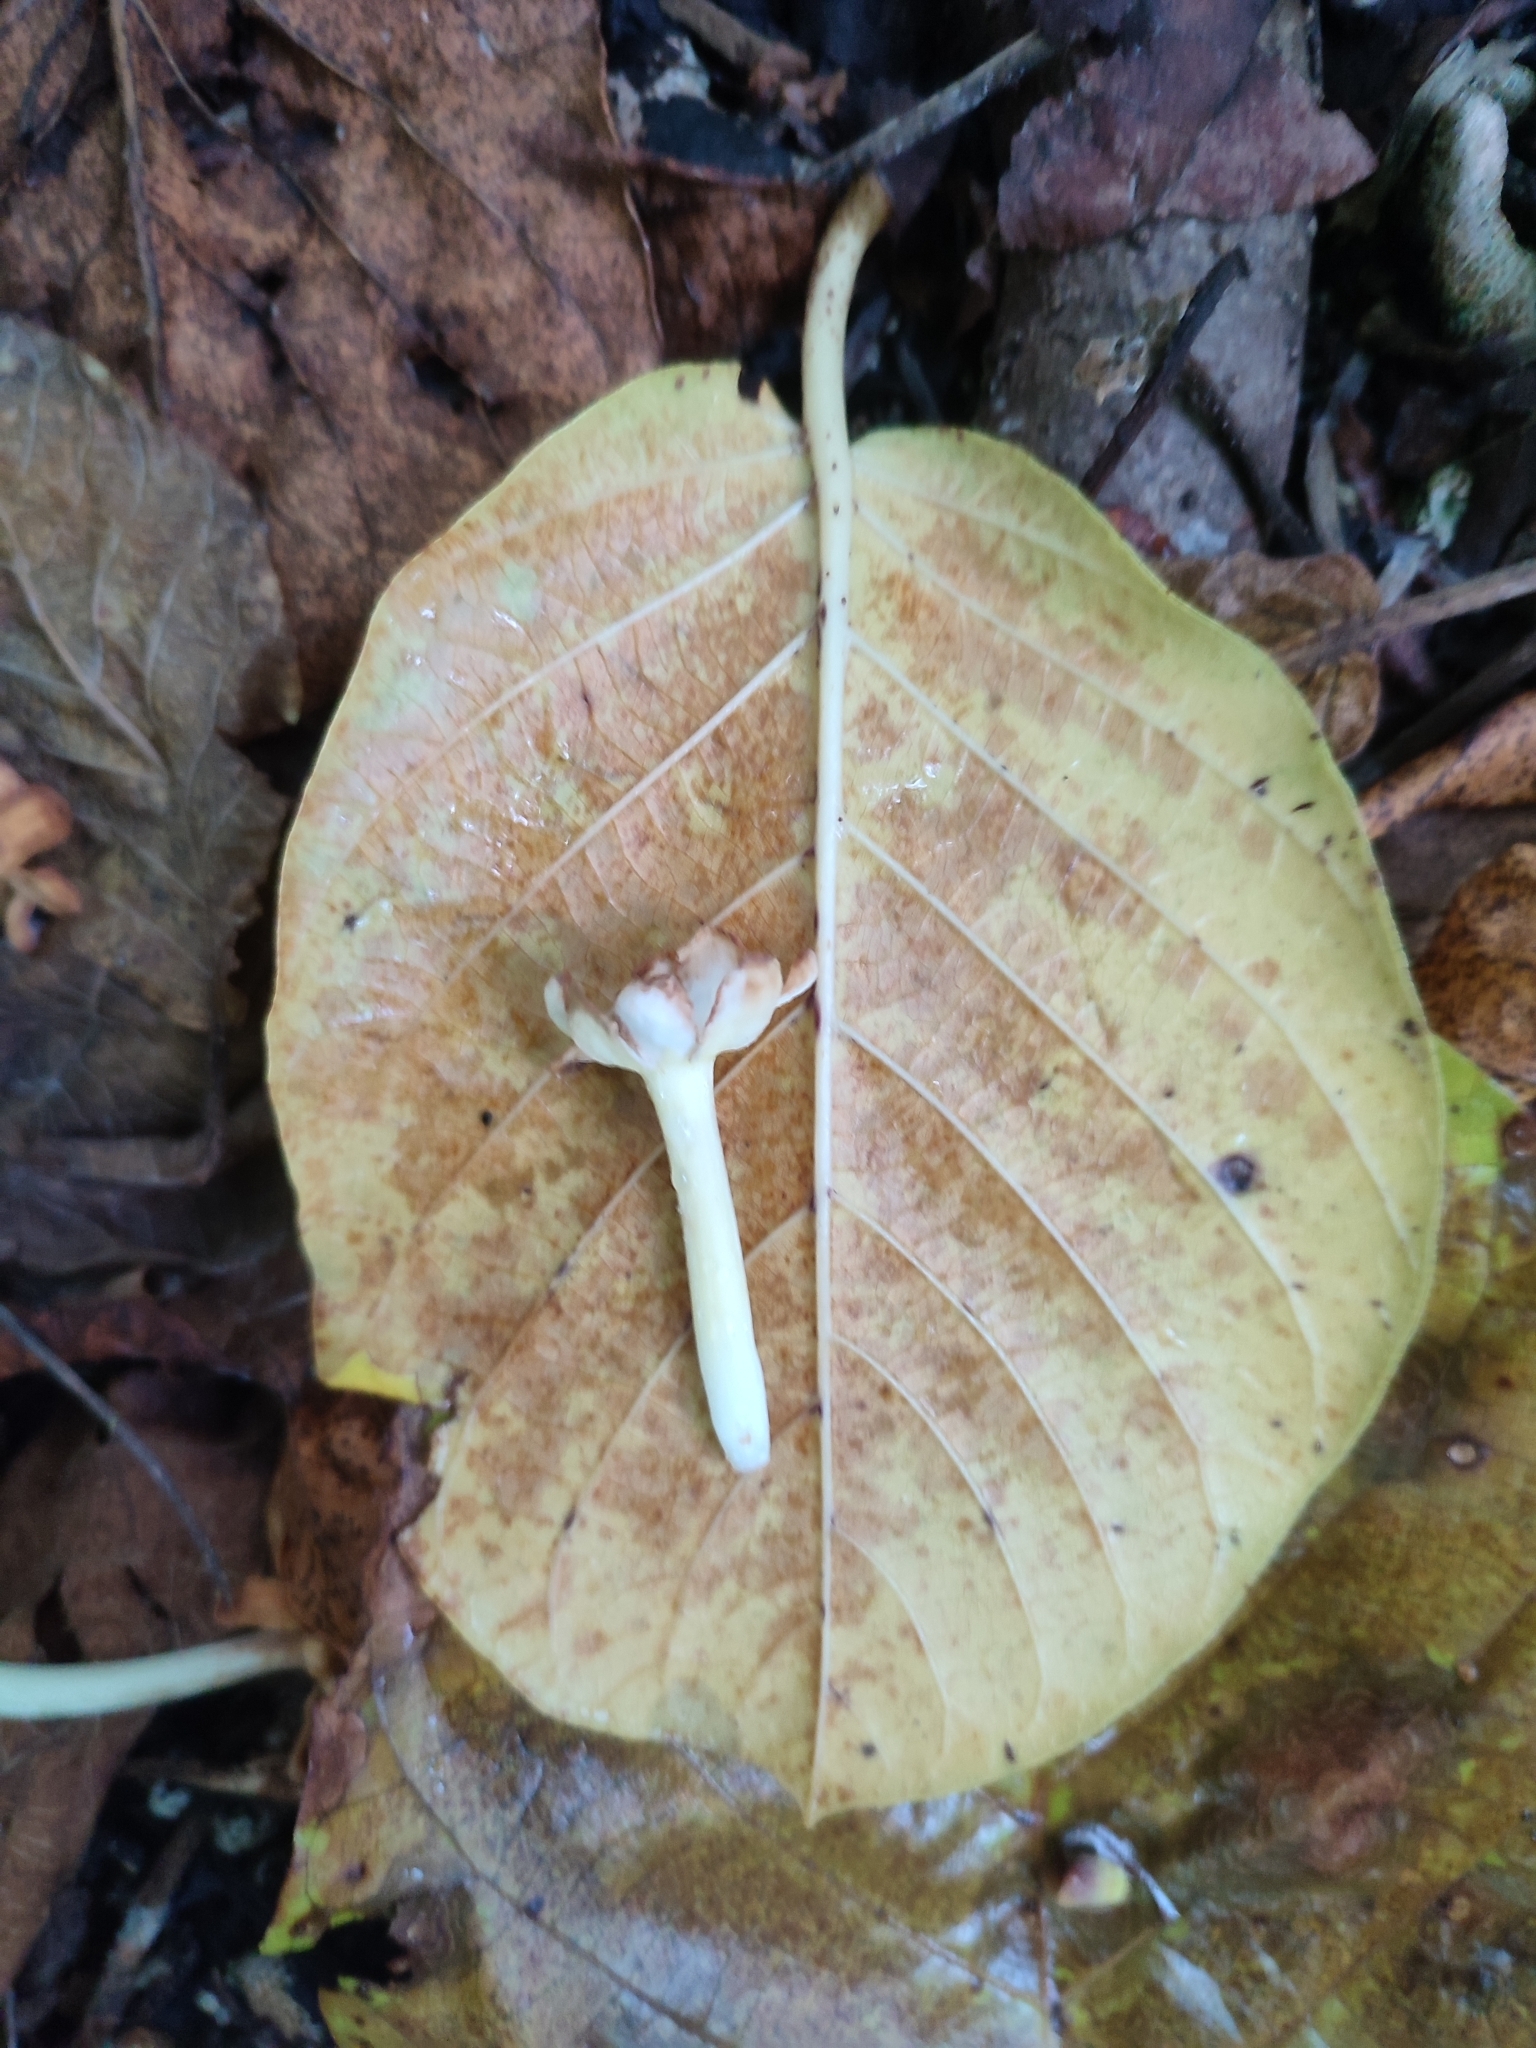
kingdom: Plantae
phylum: Tracheophyta
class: Magnoliopsida
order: Gentianales
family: Rubiaceae
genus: Guettarda
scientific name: Guettarda speciosa
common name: Sea randa
